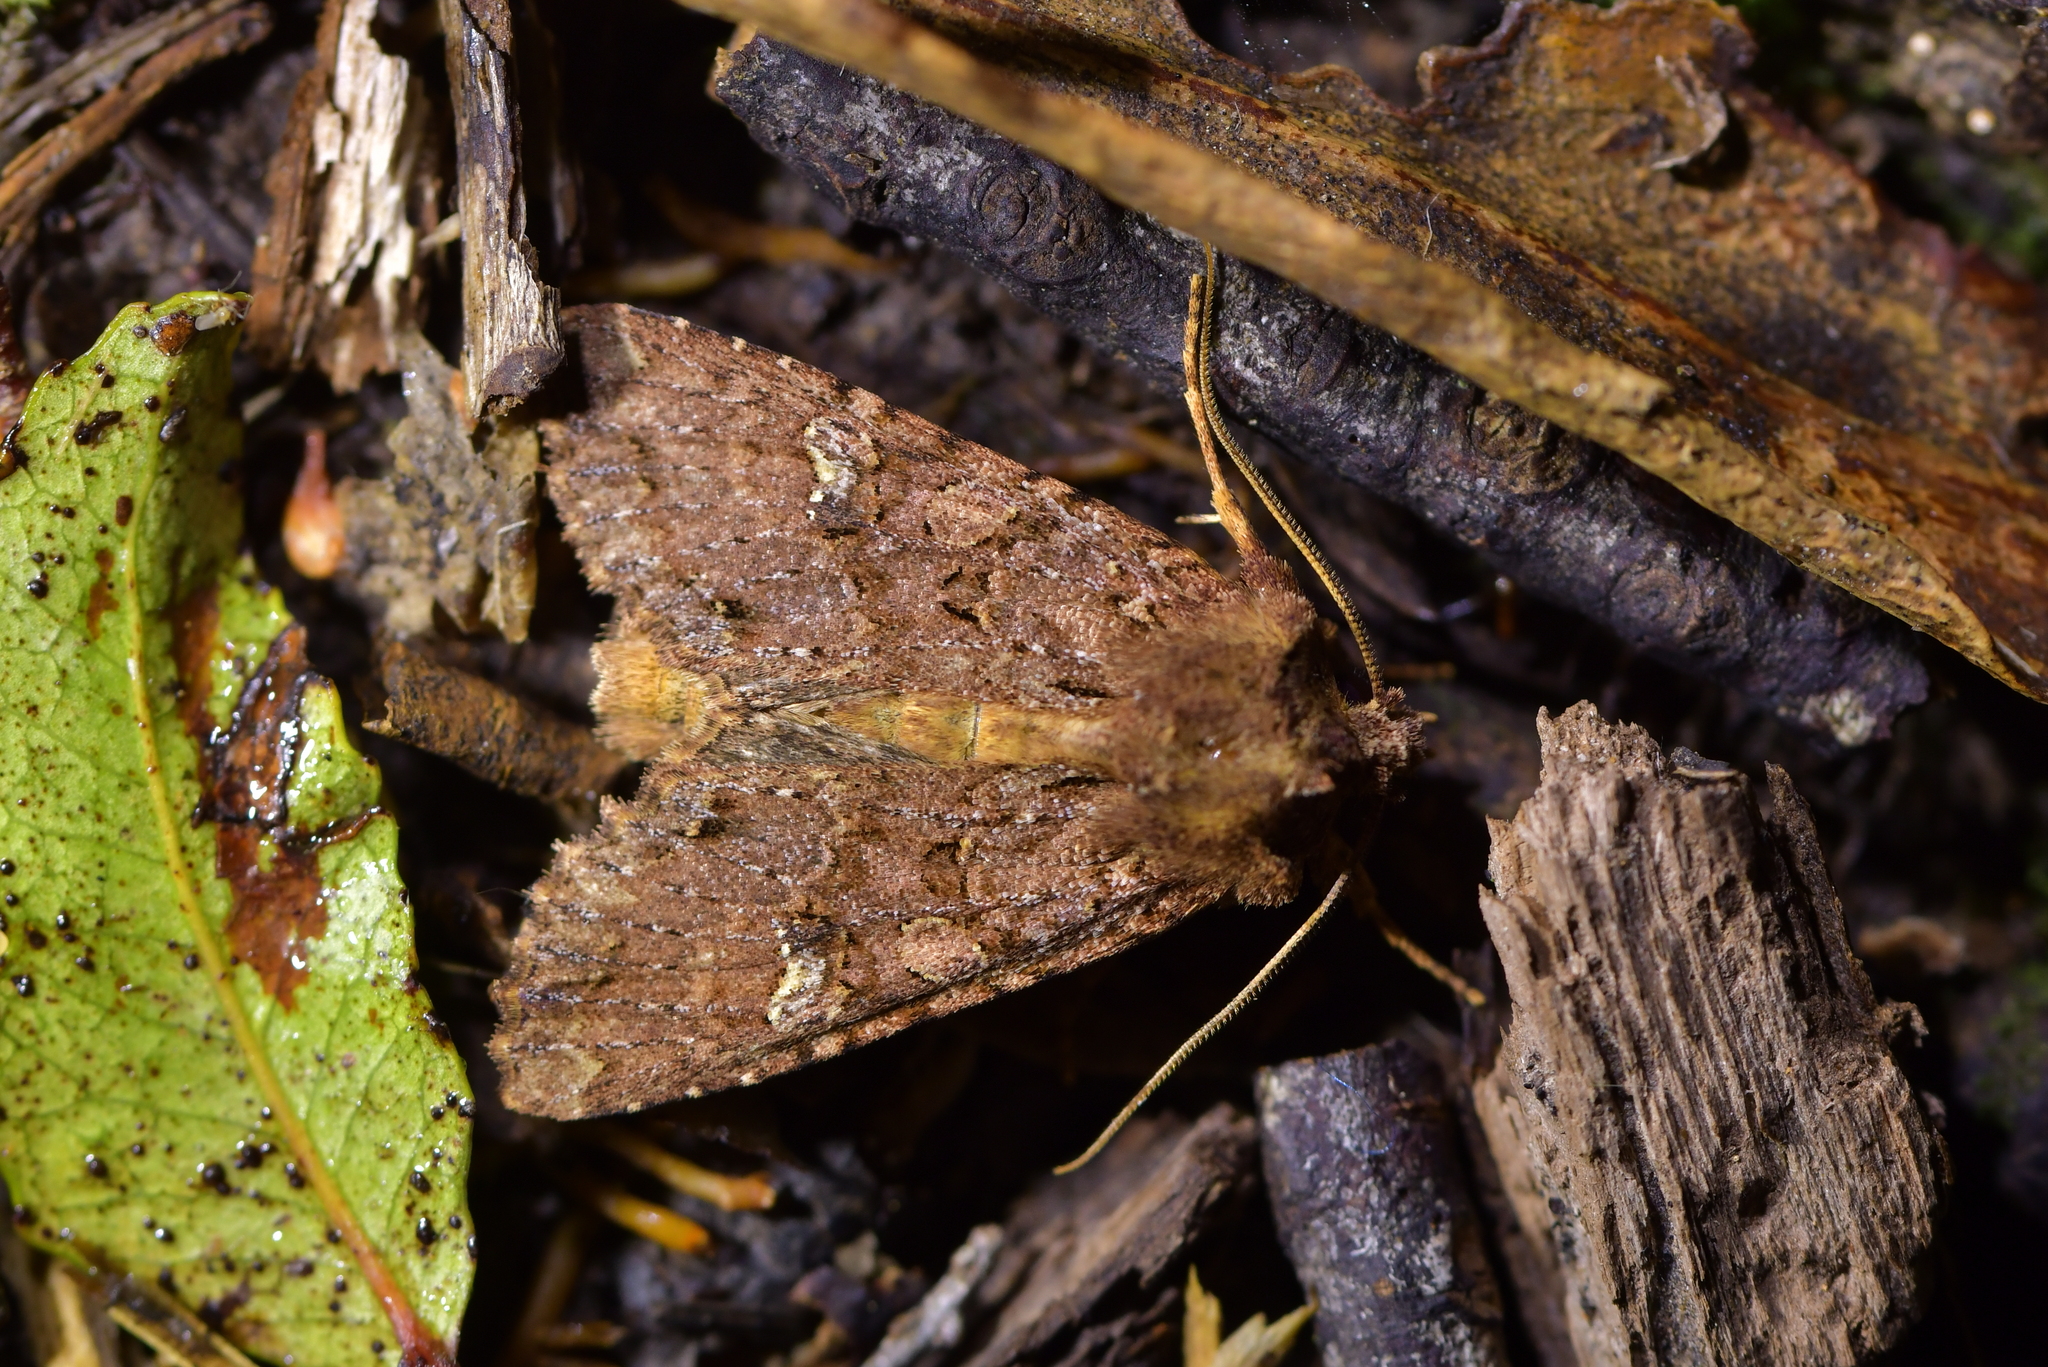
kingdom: Animalia
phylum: Arthropoda
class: Insecta
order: Lepidoptera
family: Noctuidae
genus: Meterana
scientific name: Meterana
